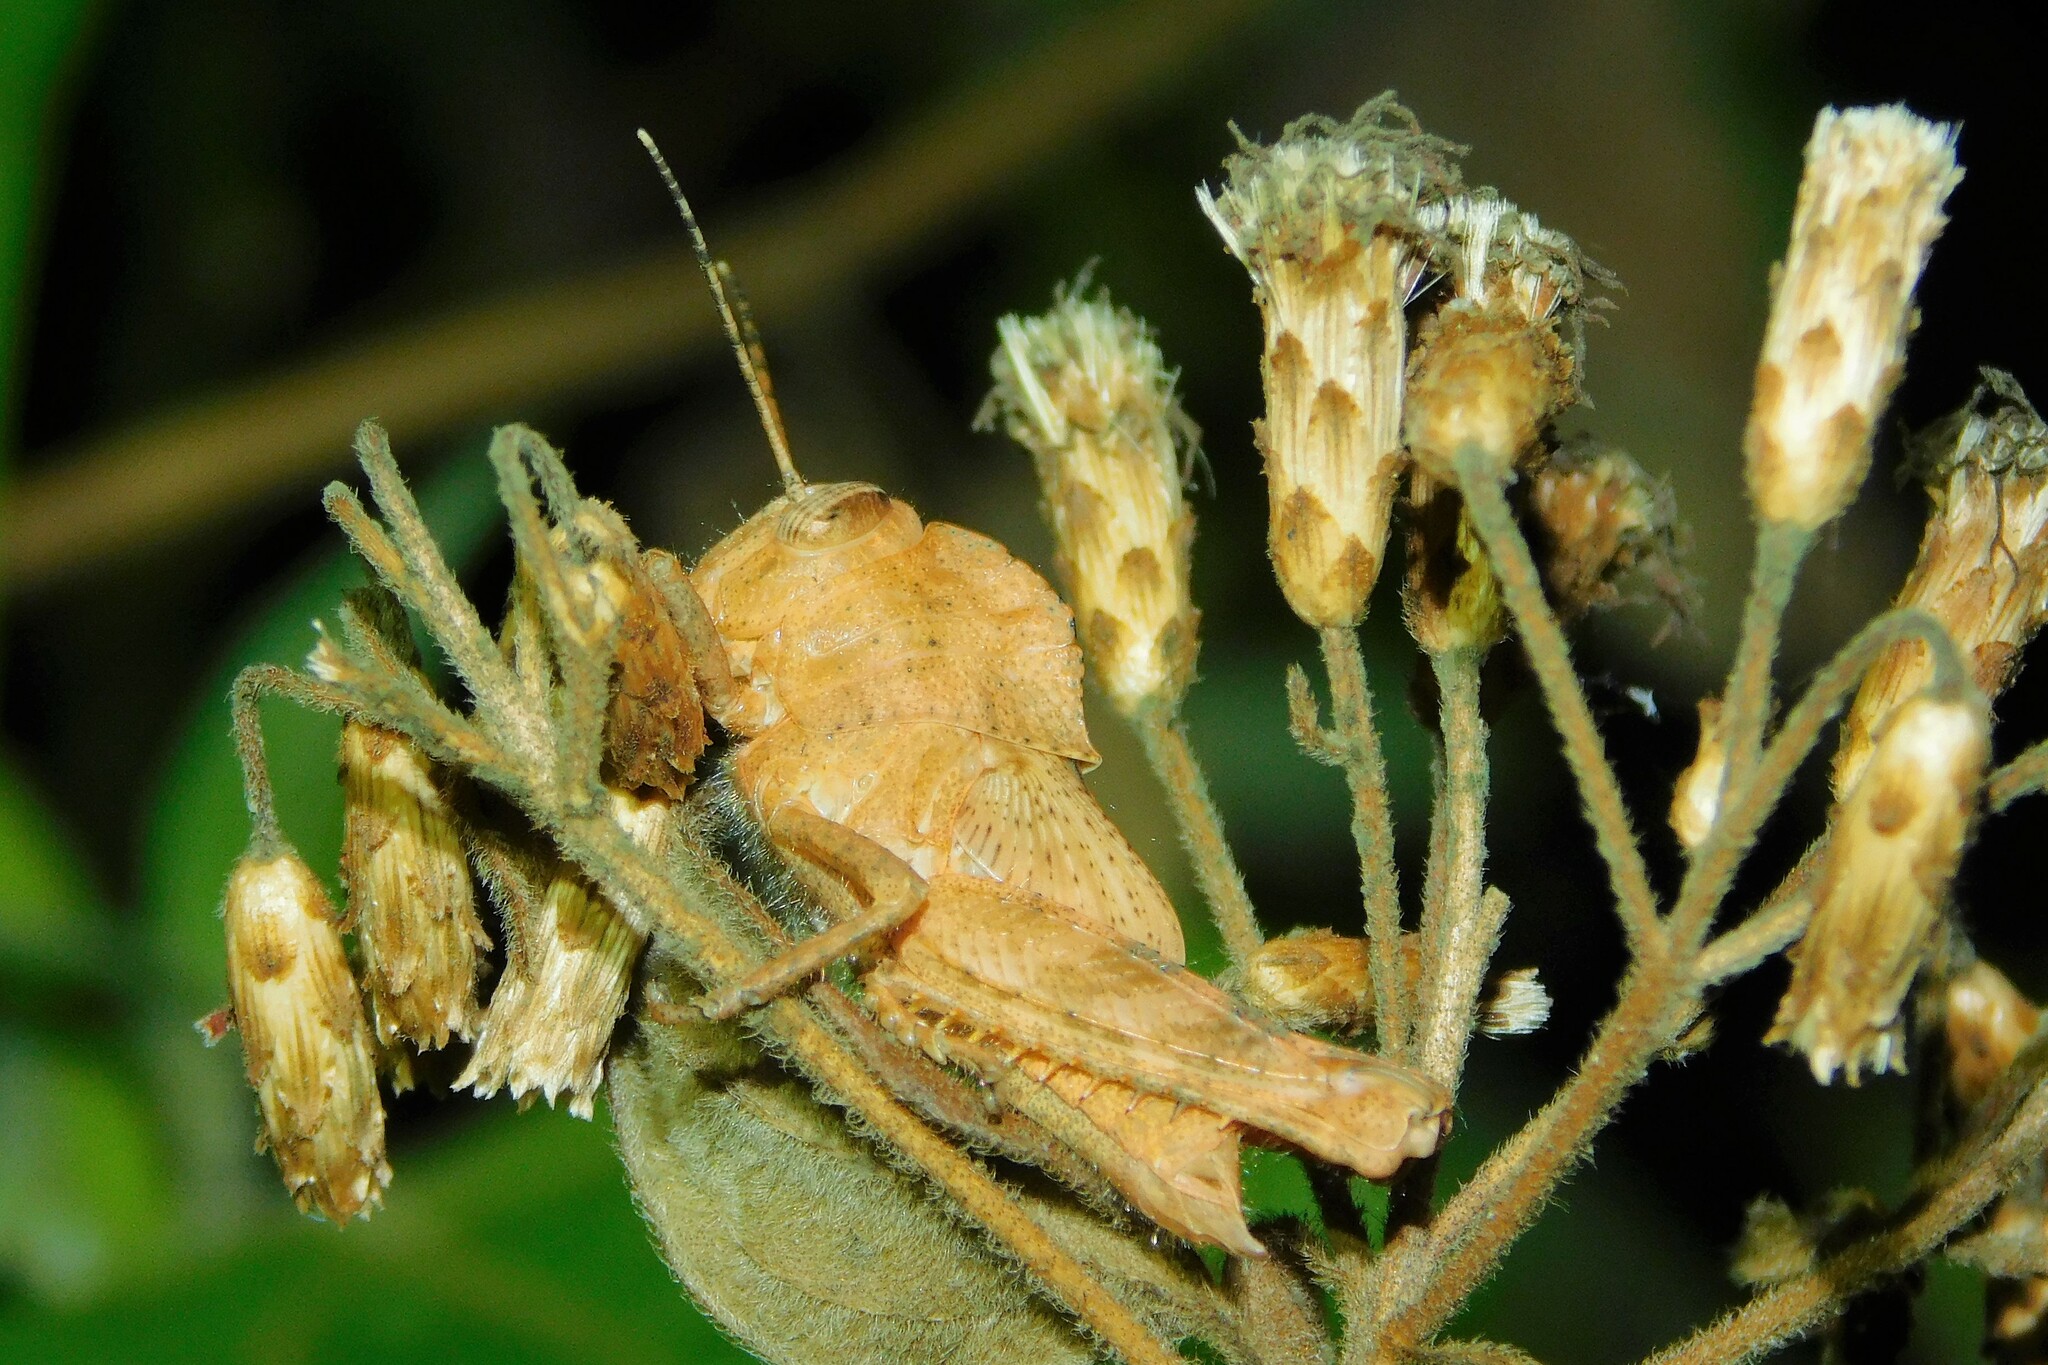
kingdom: Animalia
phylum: Arthropoda
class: Insecta
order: Orthoptera
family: Acrididae
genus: Abisares
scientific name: Abisares viridipenne
